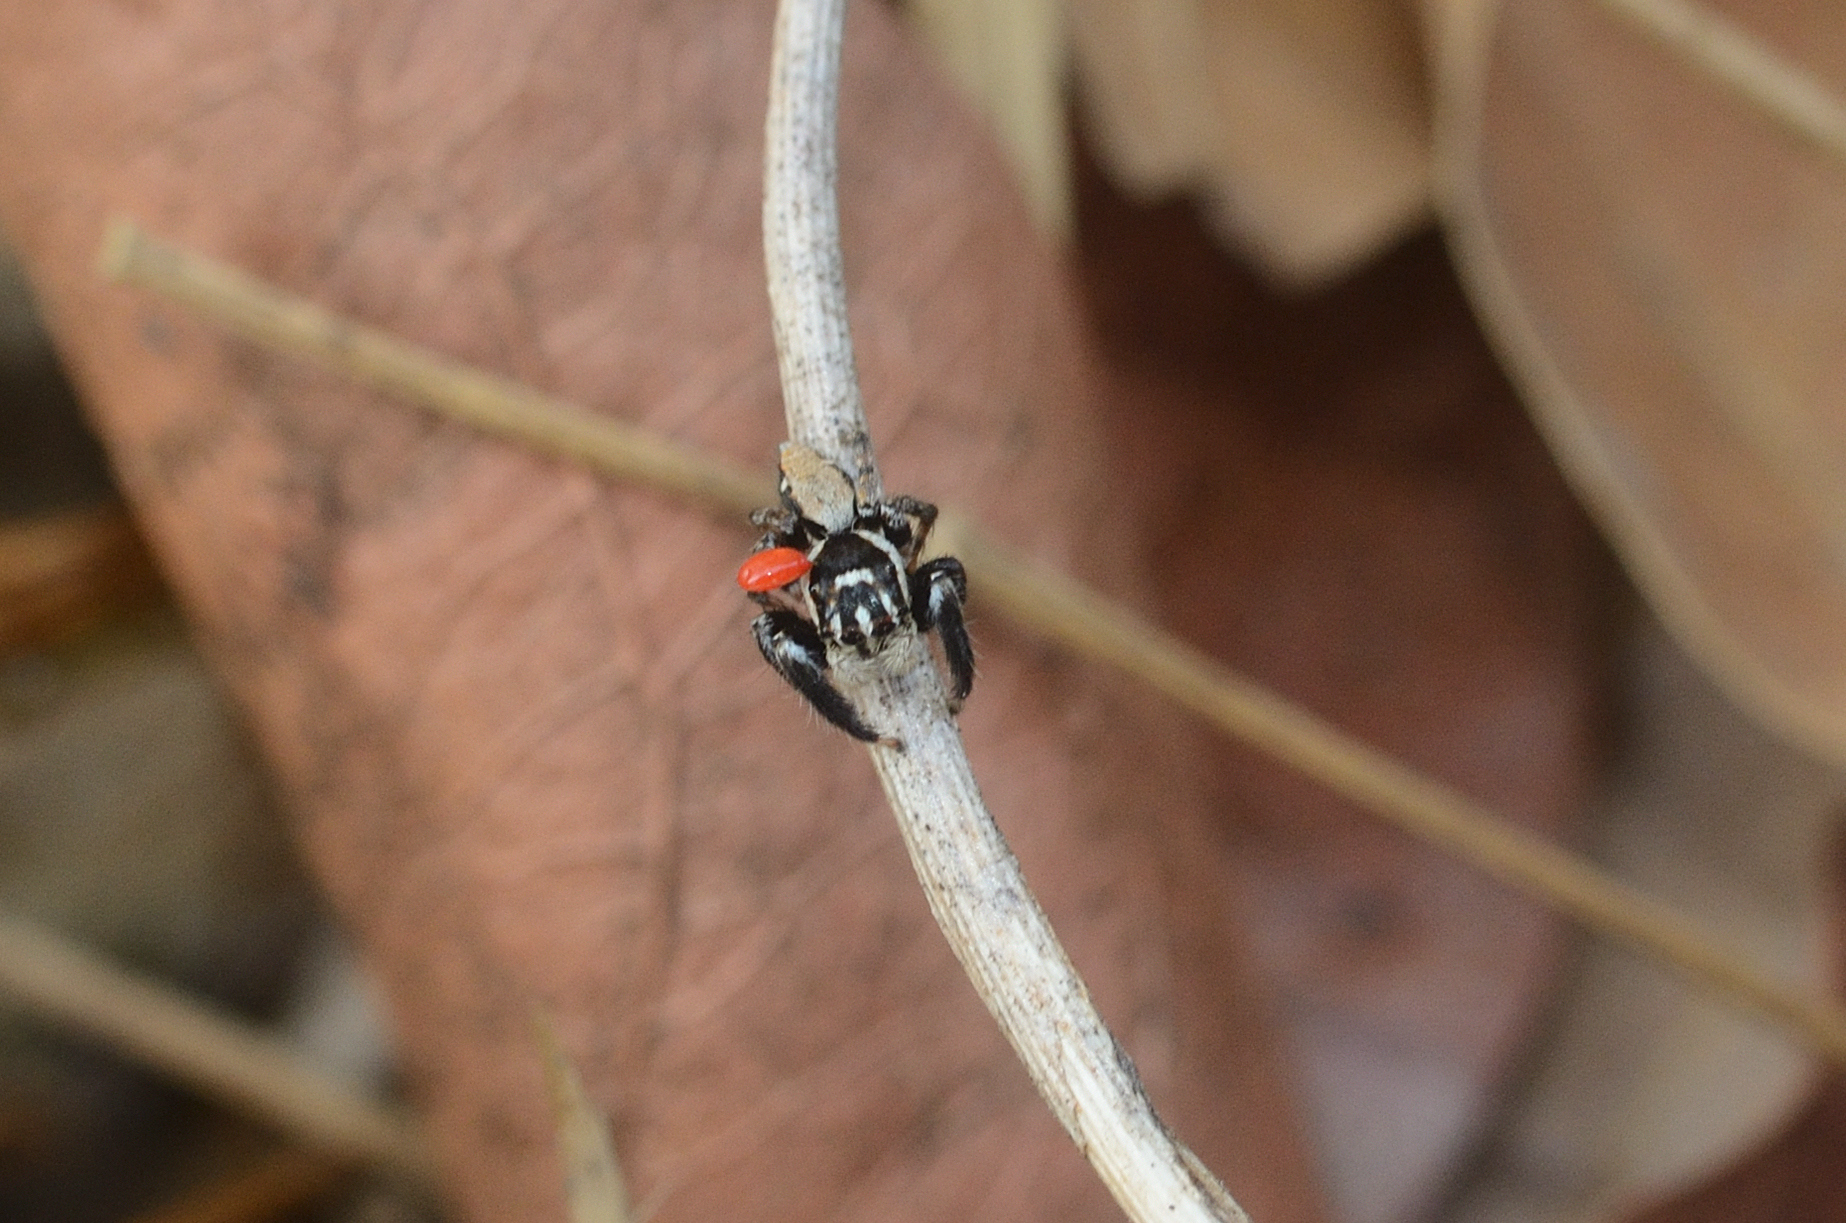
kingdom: Animalia
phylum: Arthropoda
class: Arachnida
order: Araneae
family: Salticidae
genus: Colopsus
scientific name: Colopsus arkavathi
